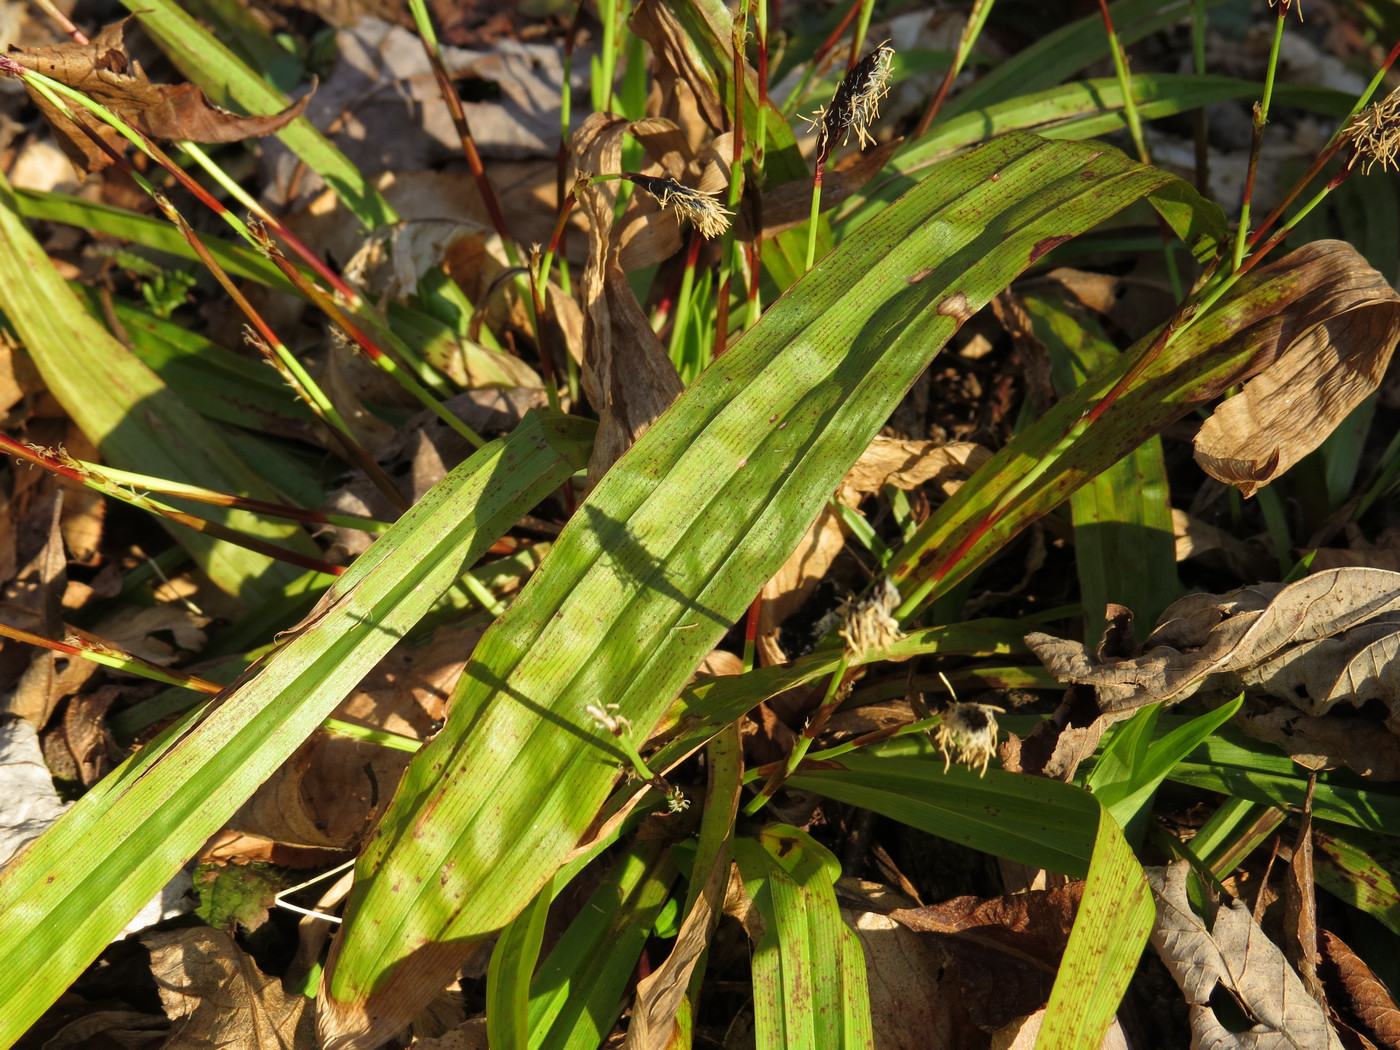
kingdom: Plantae
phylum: Tracheophyta
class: Liliopsida
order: Poales
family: Cyperaceae
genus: Carex
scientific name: Carex plantaginea
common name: Plantain-leaved sedge
